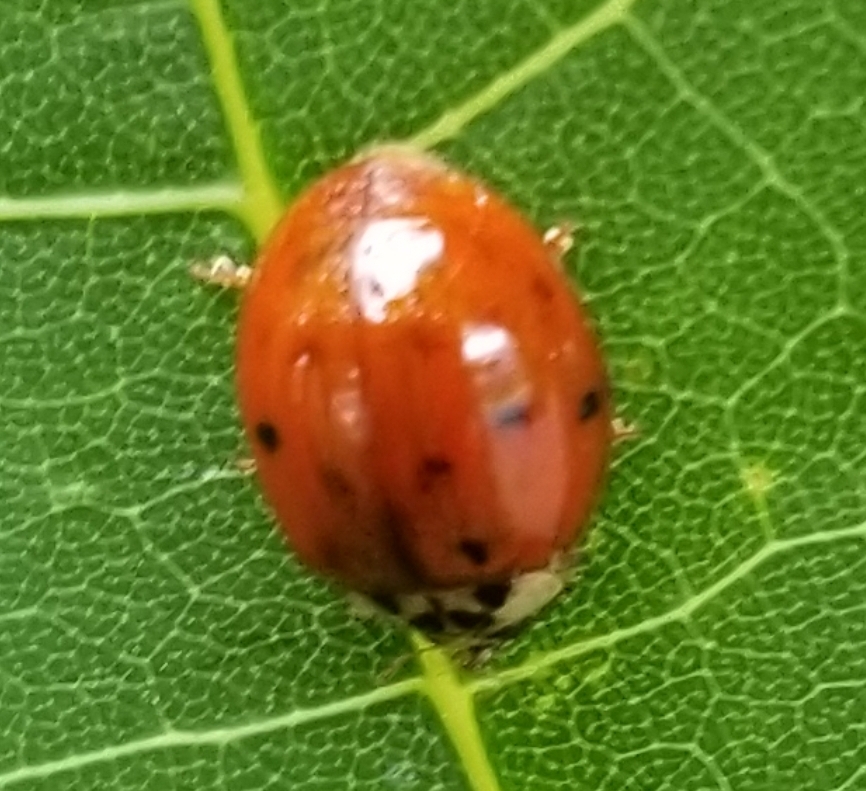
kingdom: Animalia
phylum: Arthropoda
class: Insecta
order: Coleoptera
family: Coccinellidae
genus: Harmonia
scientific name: Harmonia axyridis
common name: Harlequin ladybird
